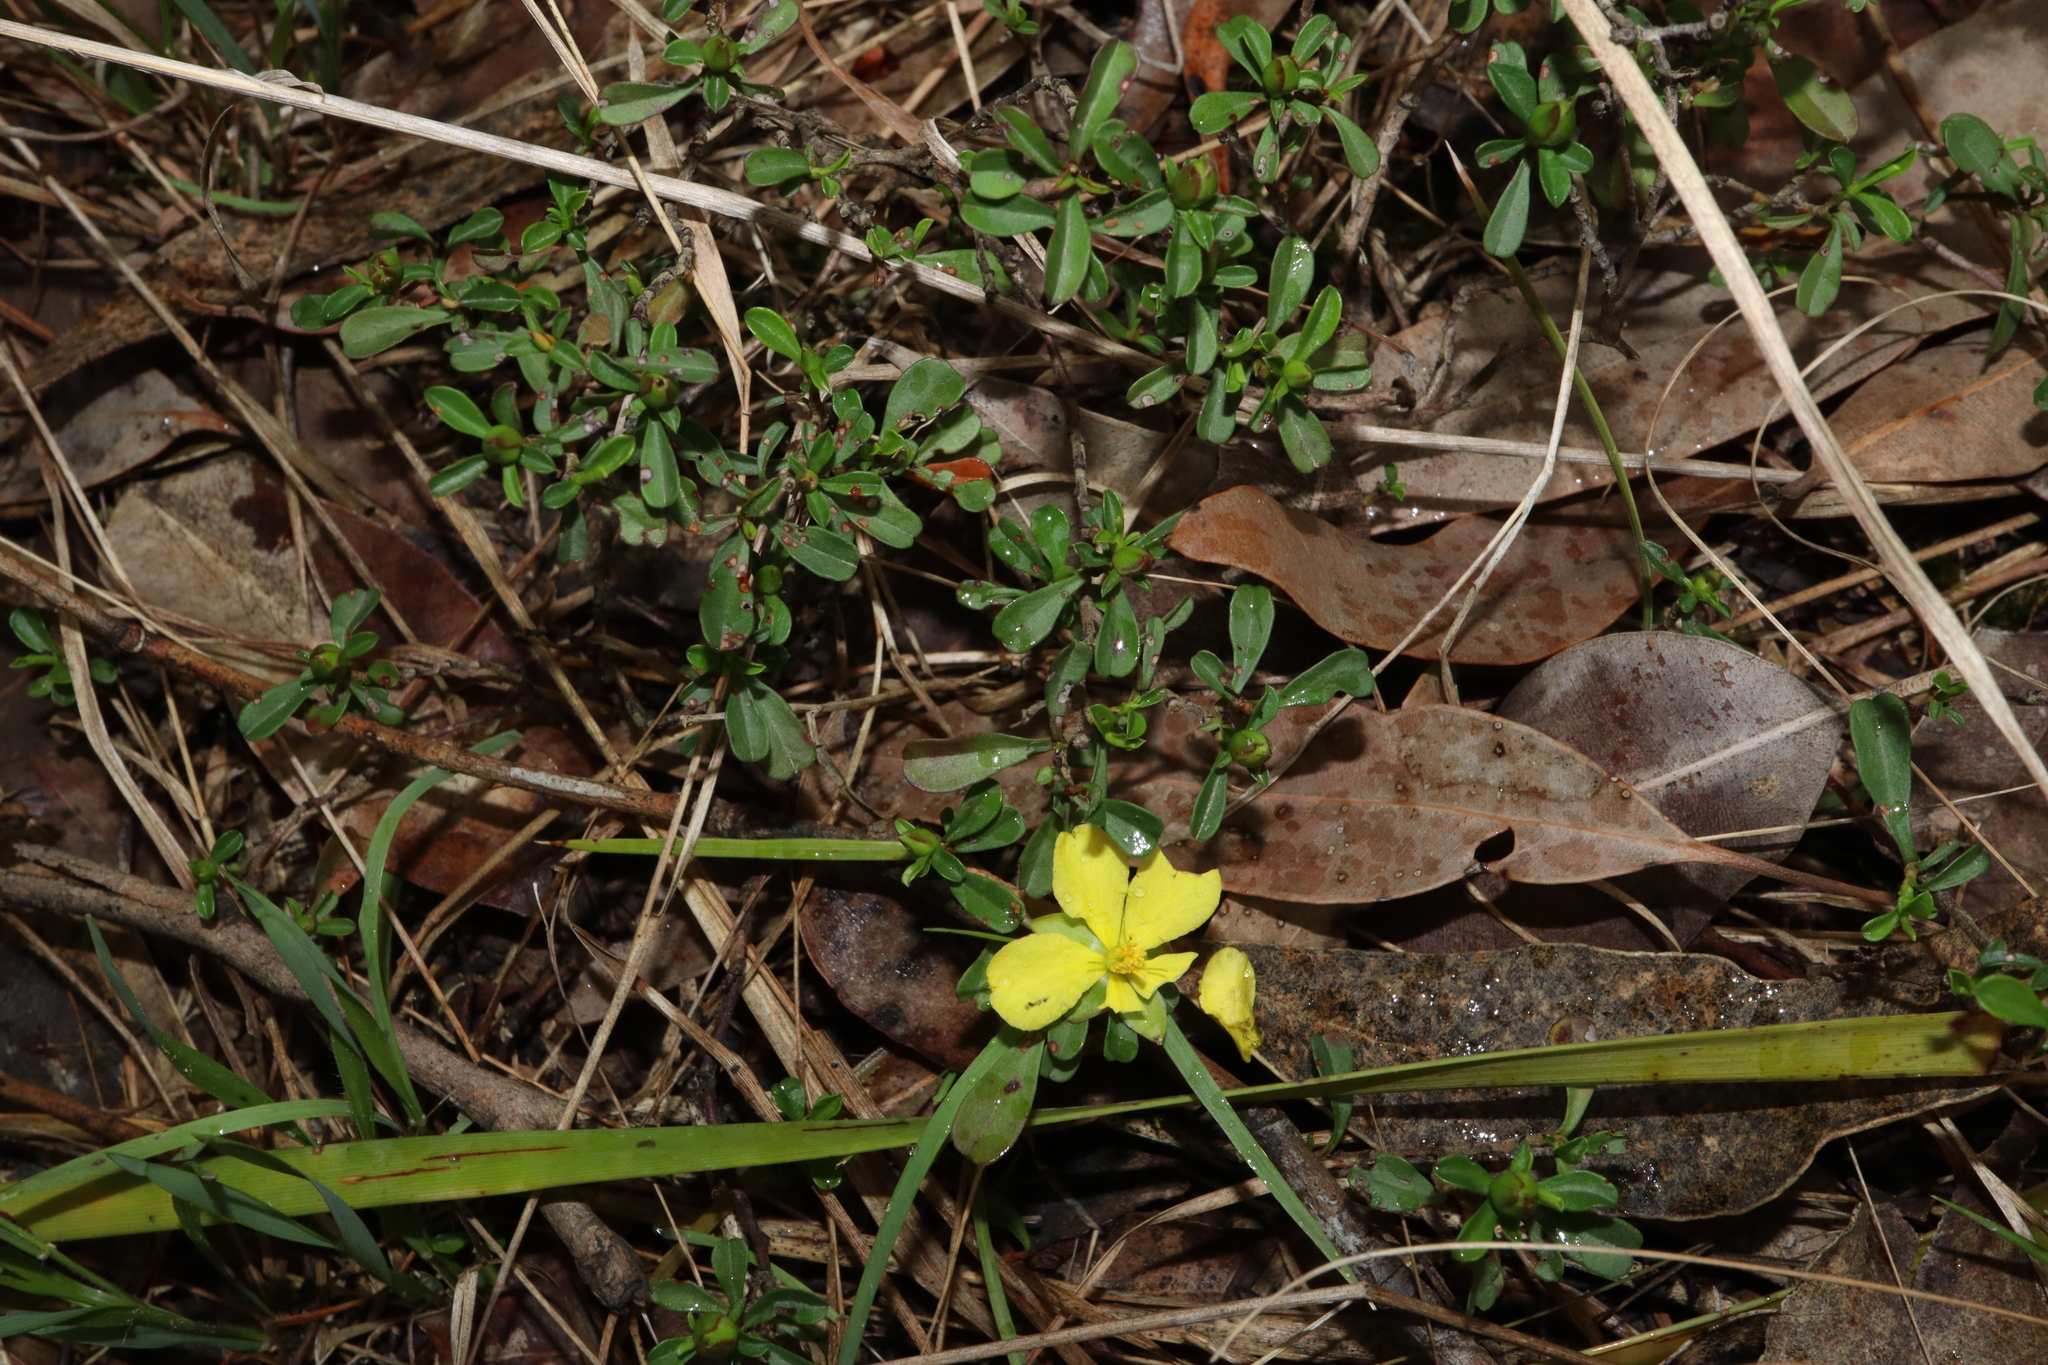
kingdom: Plantae
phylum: Tracheophyta
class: Magnoliopsida
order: Dilleniales
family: Dilleniaceae
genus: Hibbertia
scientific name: Hibbertia diffusa
